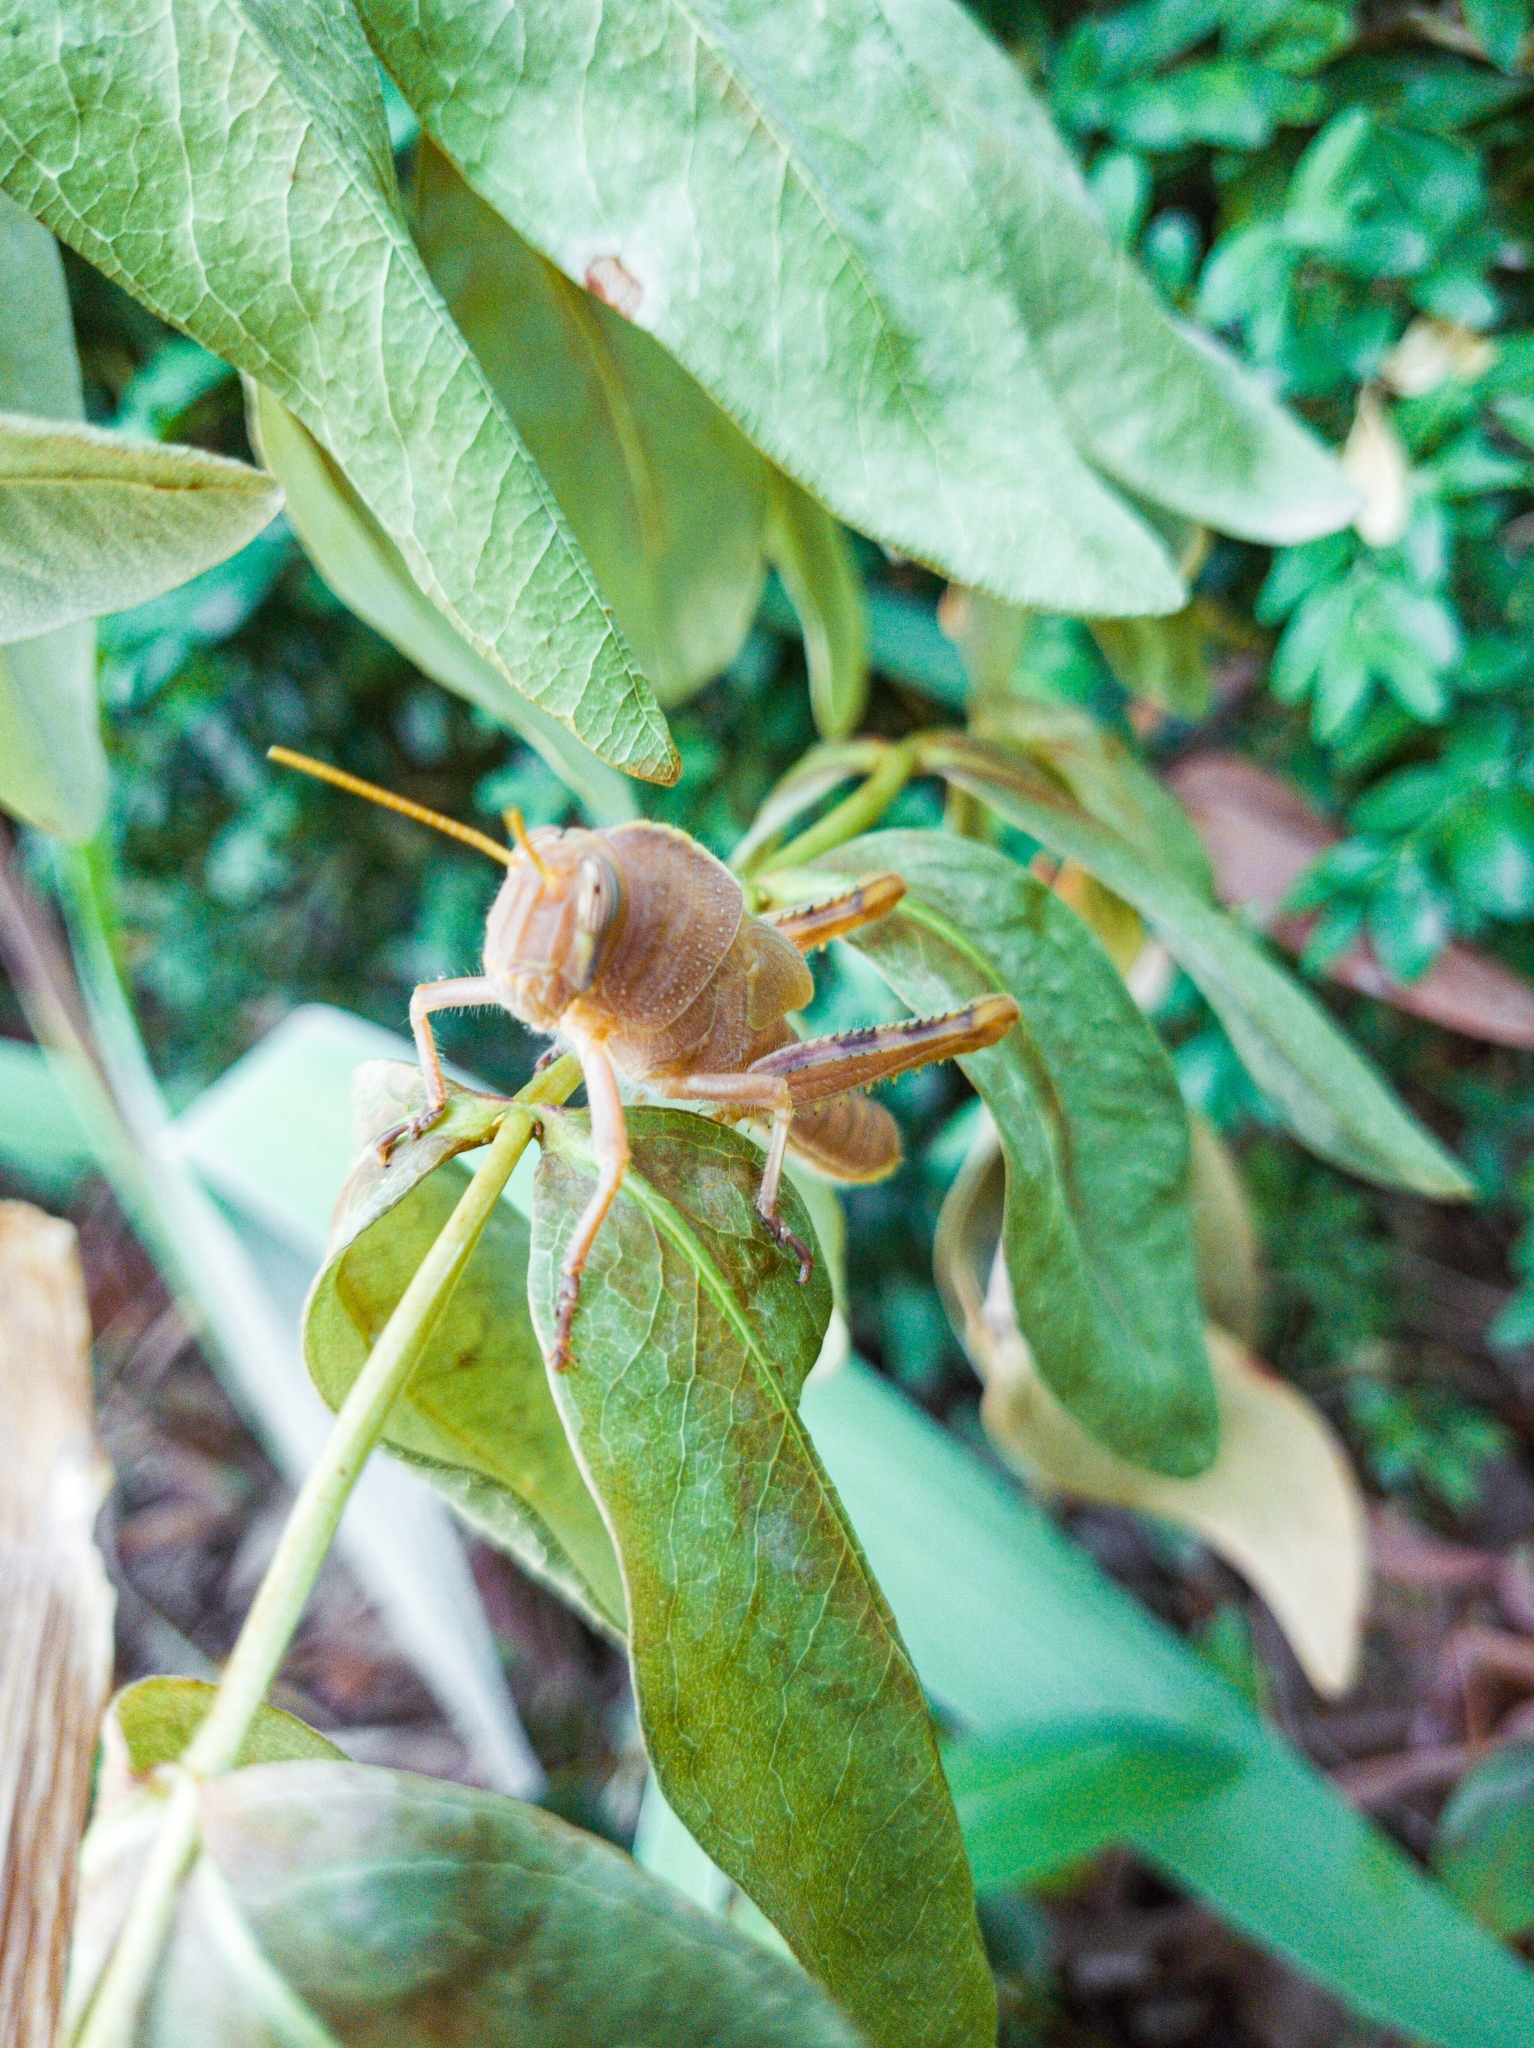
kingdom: Animalia
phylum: Arthropoda
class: Insecta
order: Orthoptera
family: Acrididae
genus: Anacridium
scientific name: Anacridium aegyptium
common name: Egyptian grasshopper
